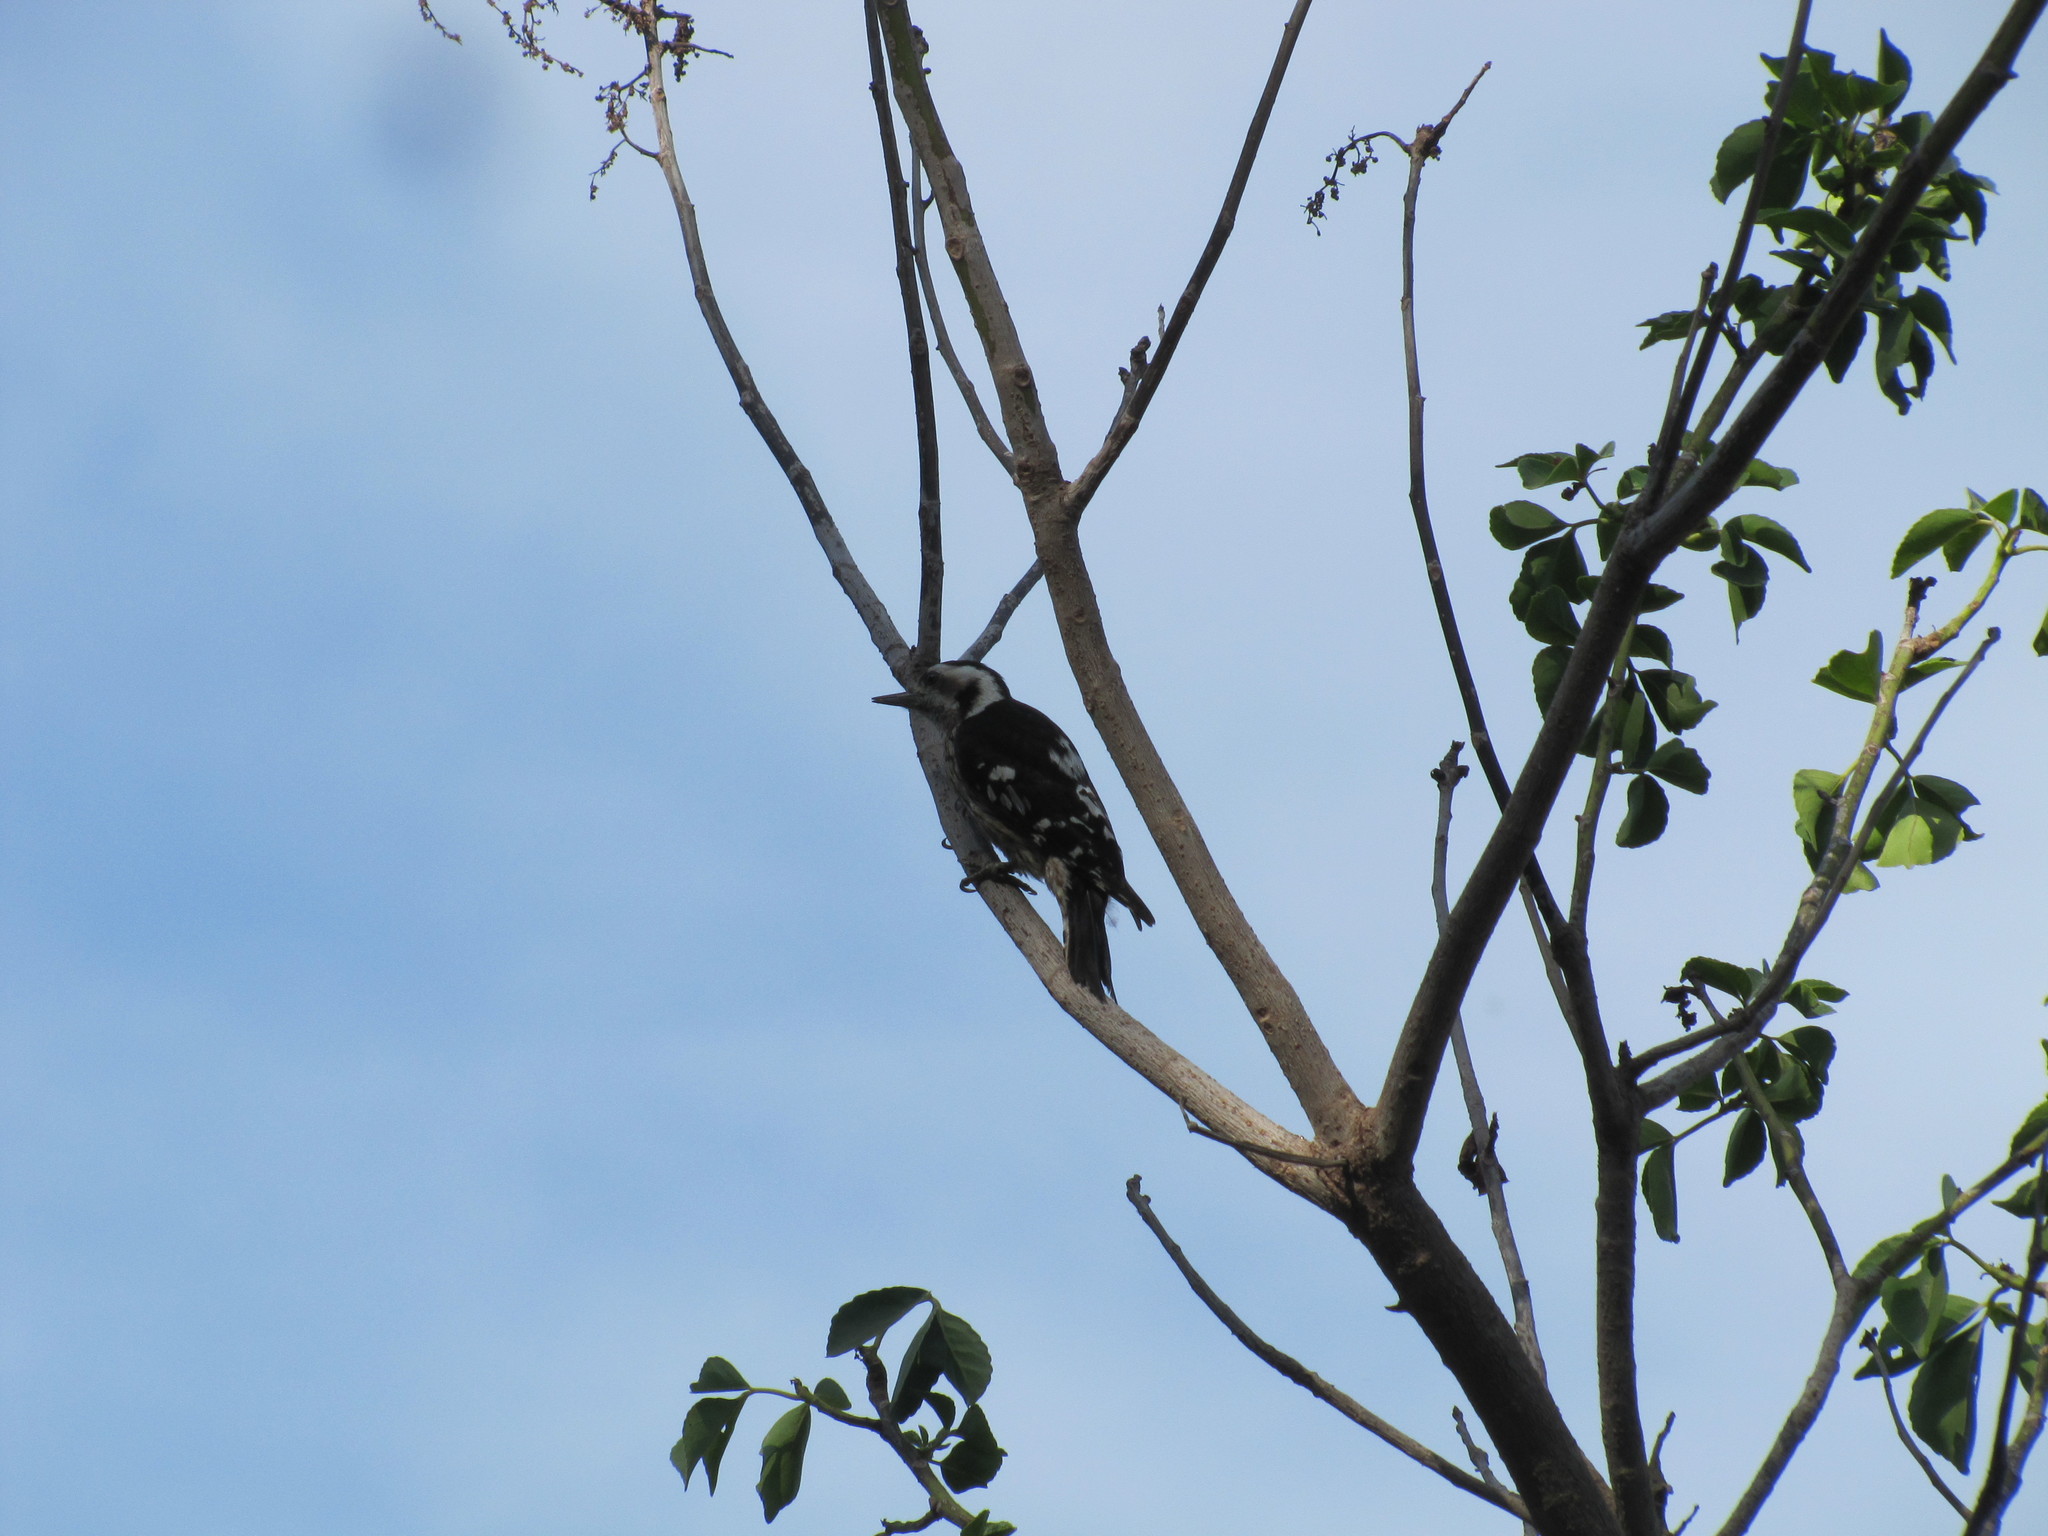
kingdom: Animalia
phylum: Chordata
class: Aves
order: Piciformes
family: Picidae
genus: Yungipicus
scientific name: Yungipicus canicapillus
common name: Grey-capped pygmy woodpecker
